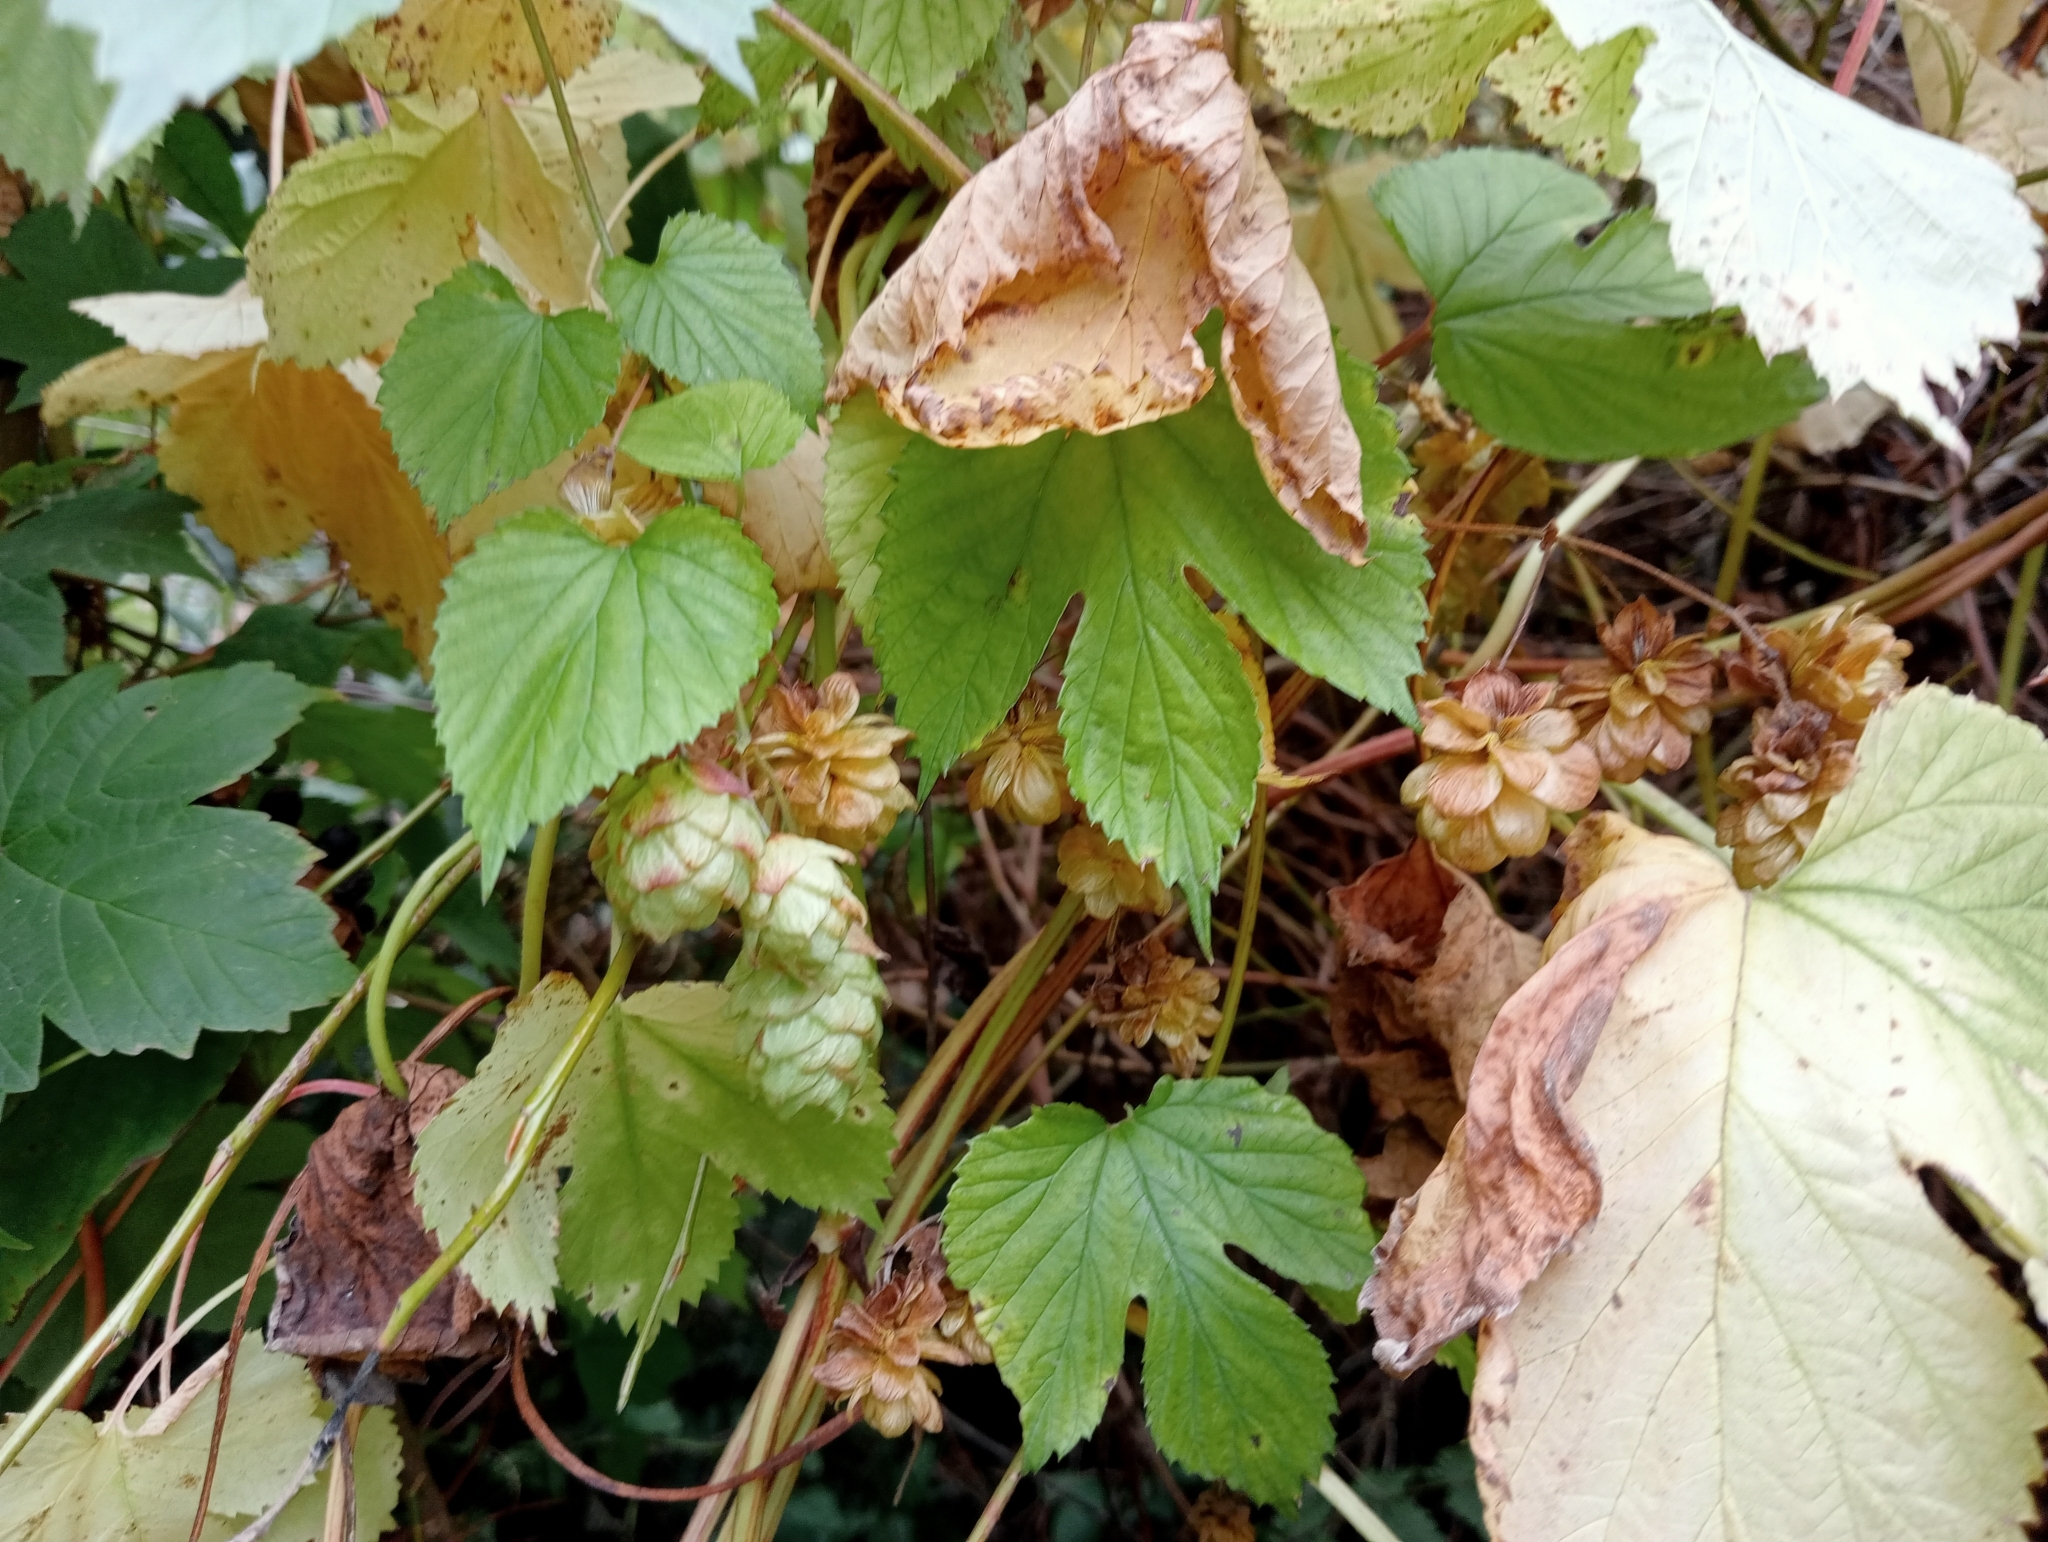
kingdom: Plantae
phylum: Tracheophyta
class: Magnoliopsida
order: Rosales
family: Cannabaceae
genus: Humulus
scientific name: Humulus lupulus
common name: Hop
